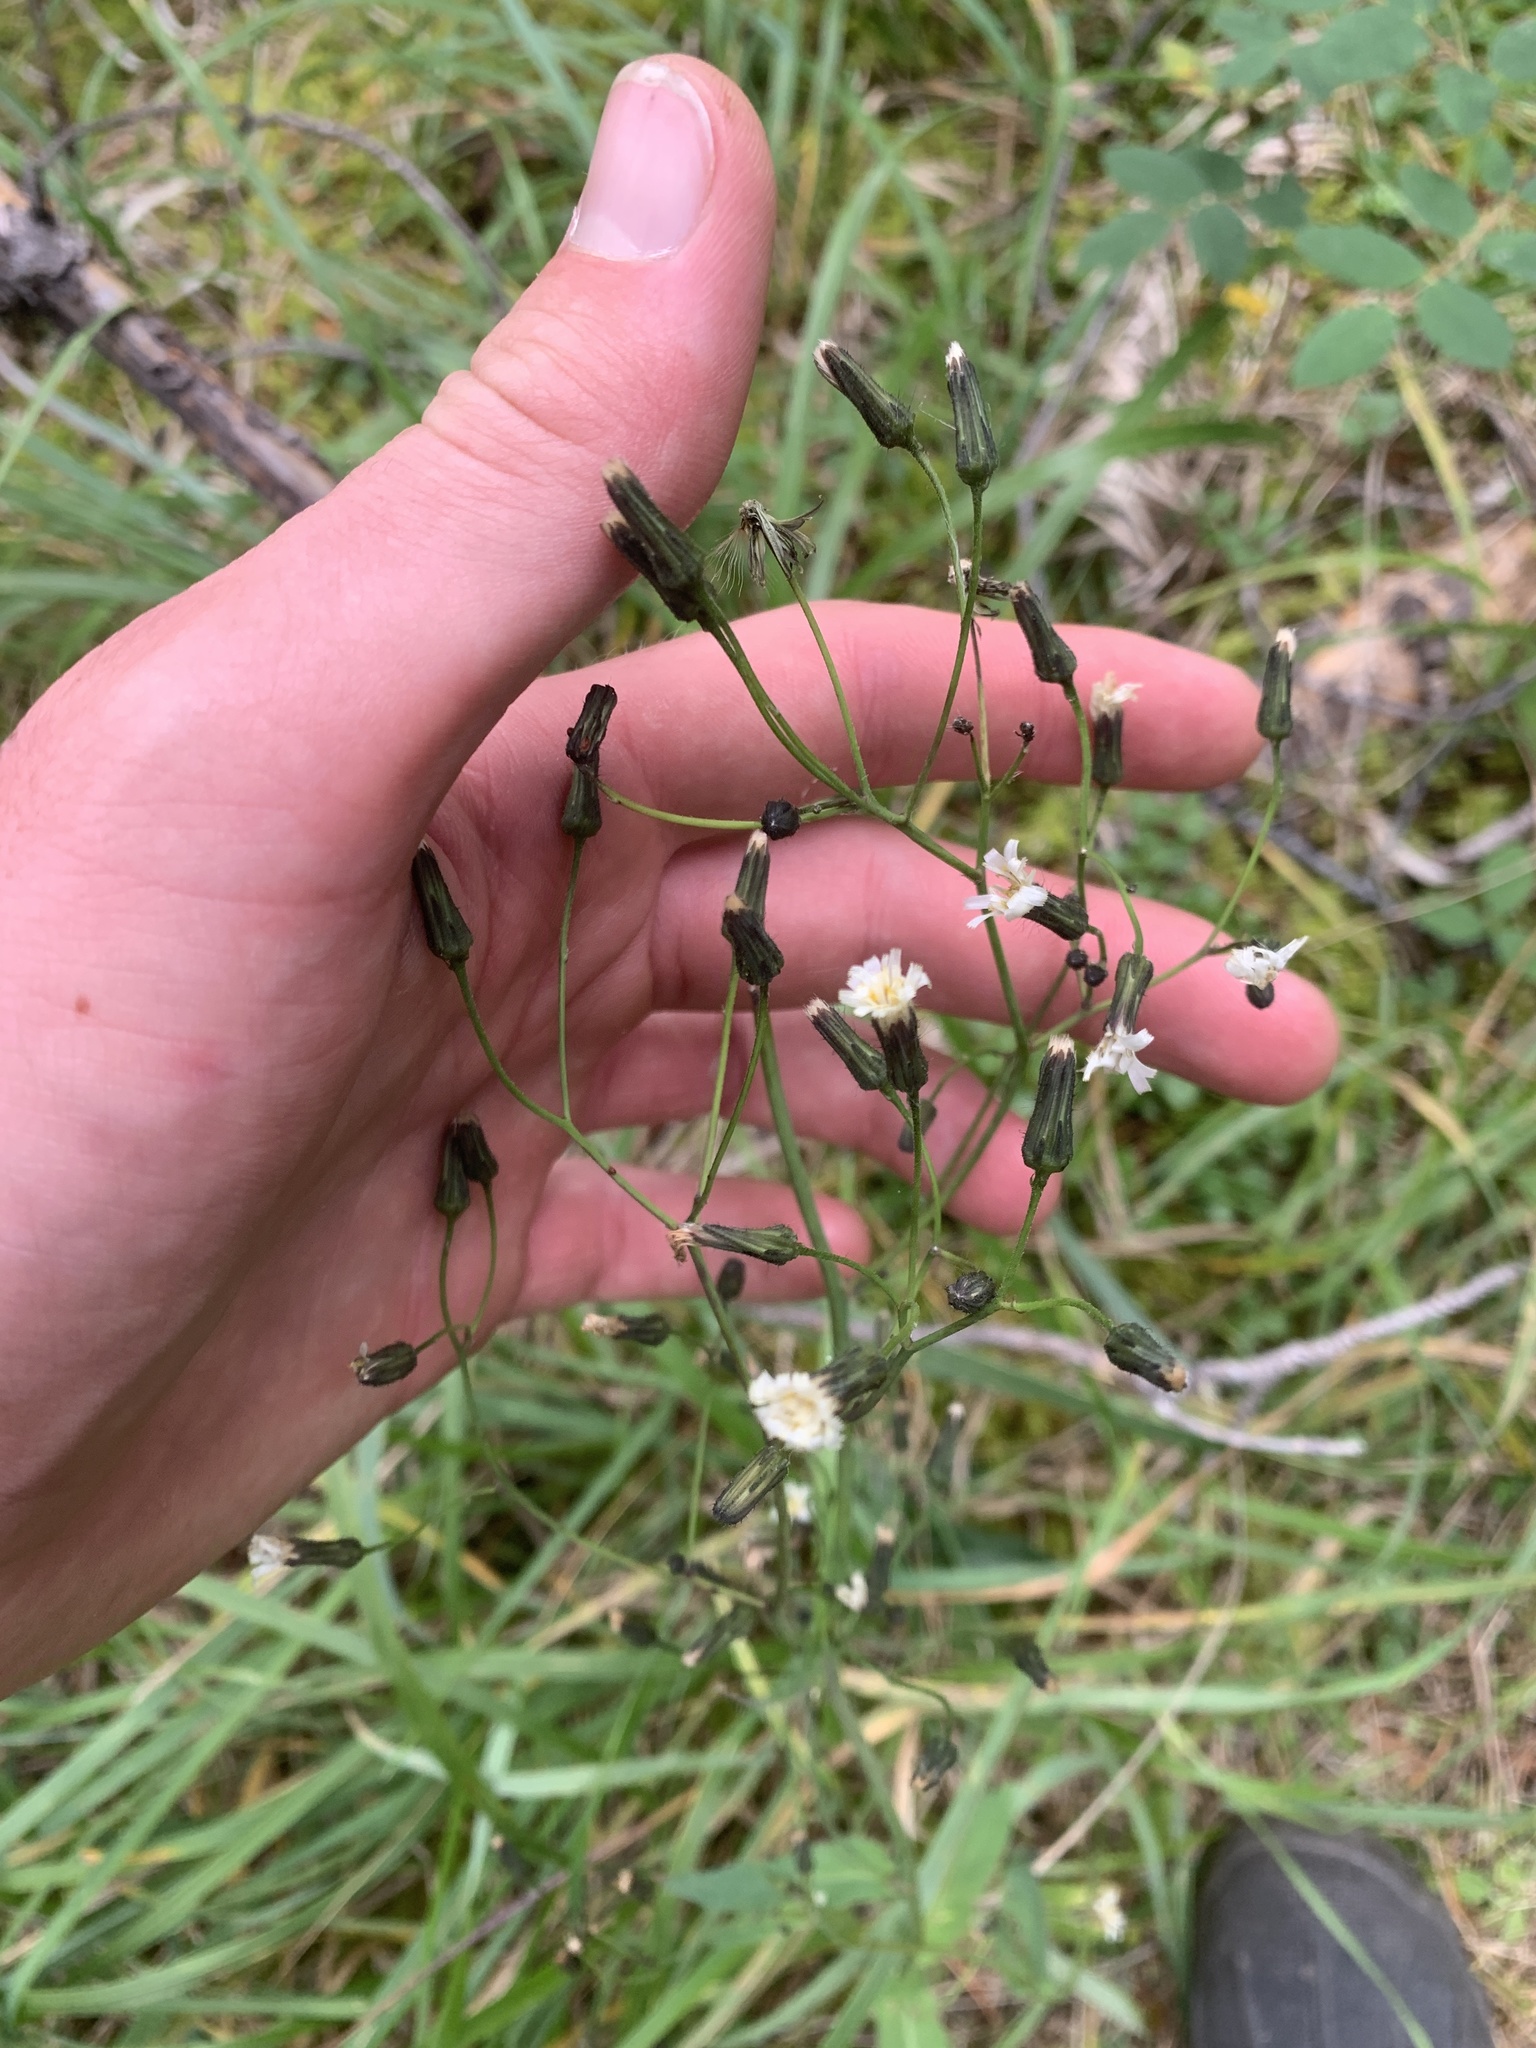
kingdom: Plantae
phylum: Tracheophyta
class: Magnoliopsida
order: Asterales
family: Asteraceae
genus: Hieracium
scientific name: Hieracium albiflorum
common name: White hawkweed
